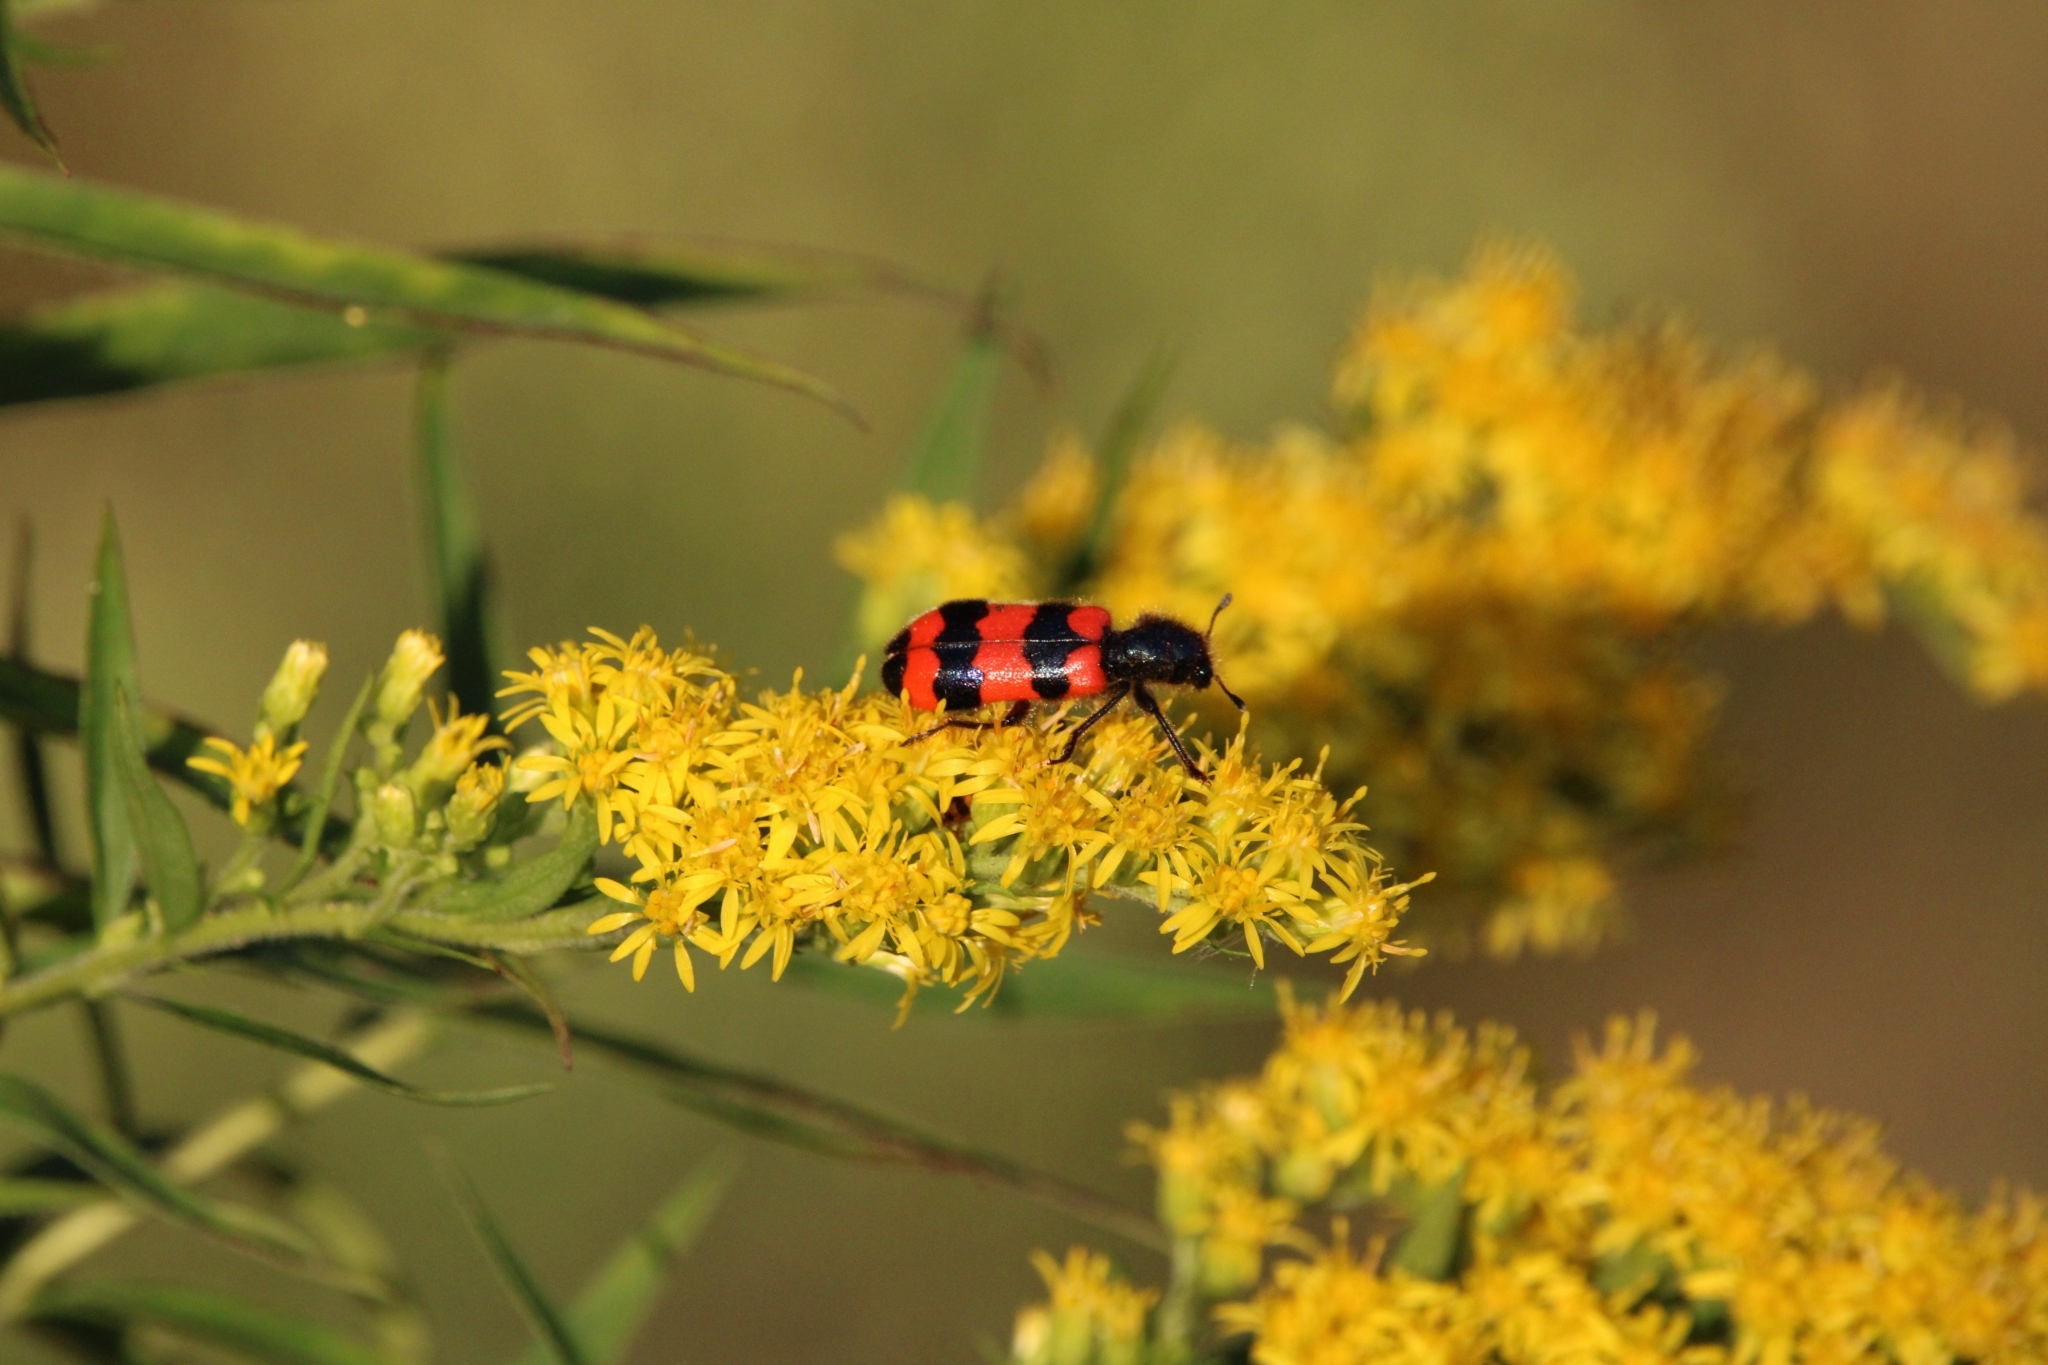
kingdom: Animalia
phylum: Arthropoda
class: Insecta
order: Coleoptera
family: Cleridae
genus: Trichodes
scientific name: Trichodes apiarius
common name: Bee-eating beetle
